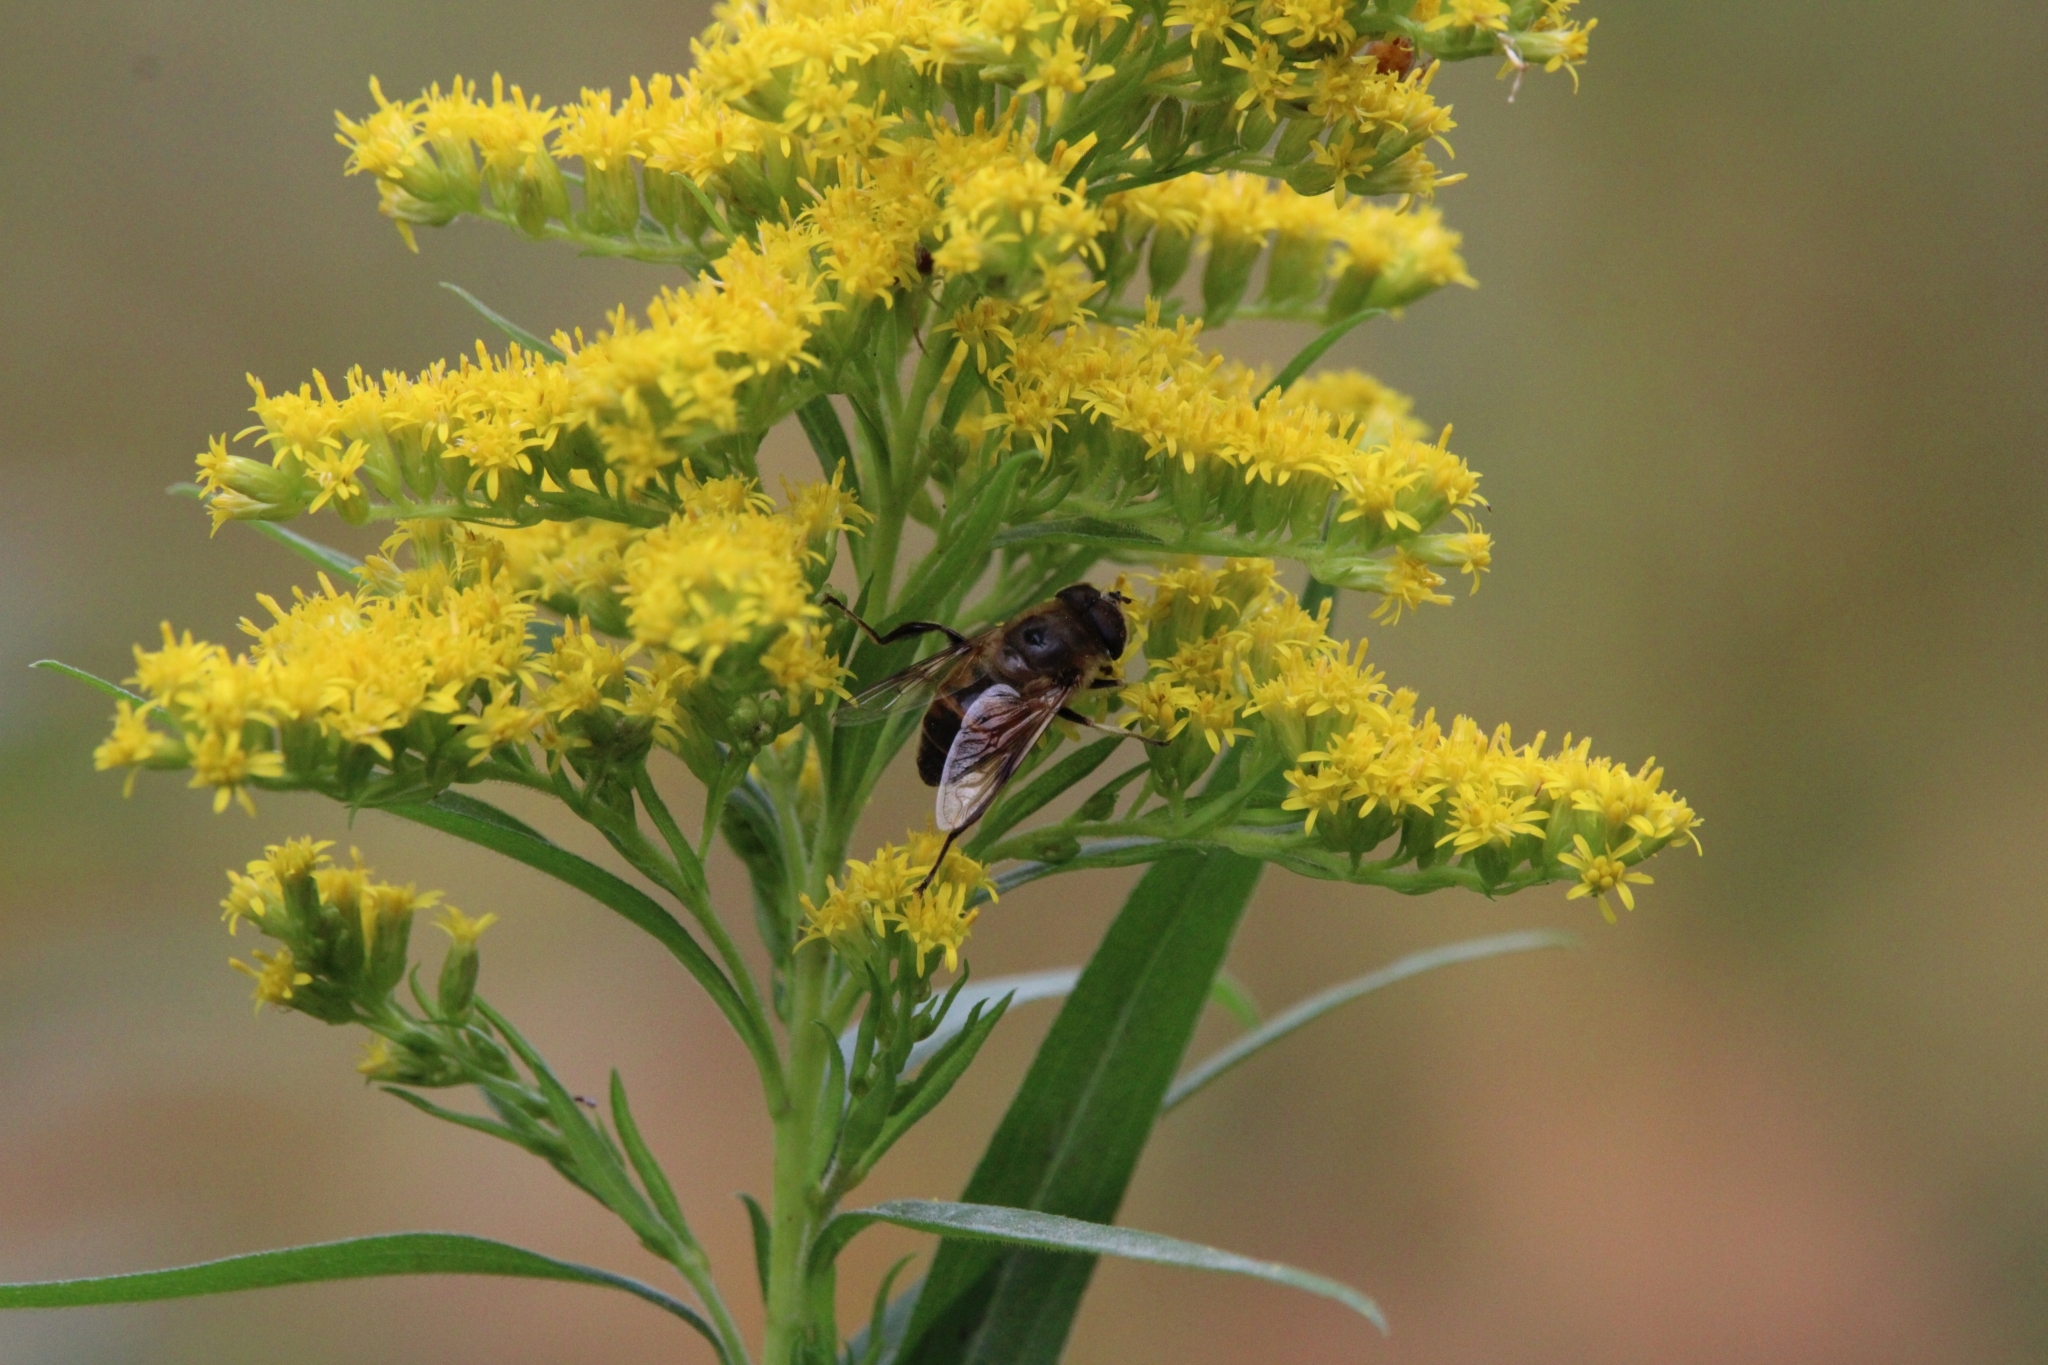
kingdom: Animalia
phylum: Arthropoda
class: Insecta
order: Diptera
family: Syrphidae
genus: Eristalis
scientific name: Eristalis tenax
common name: Drone fly
